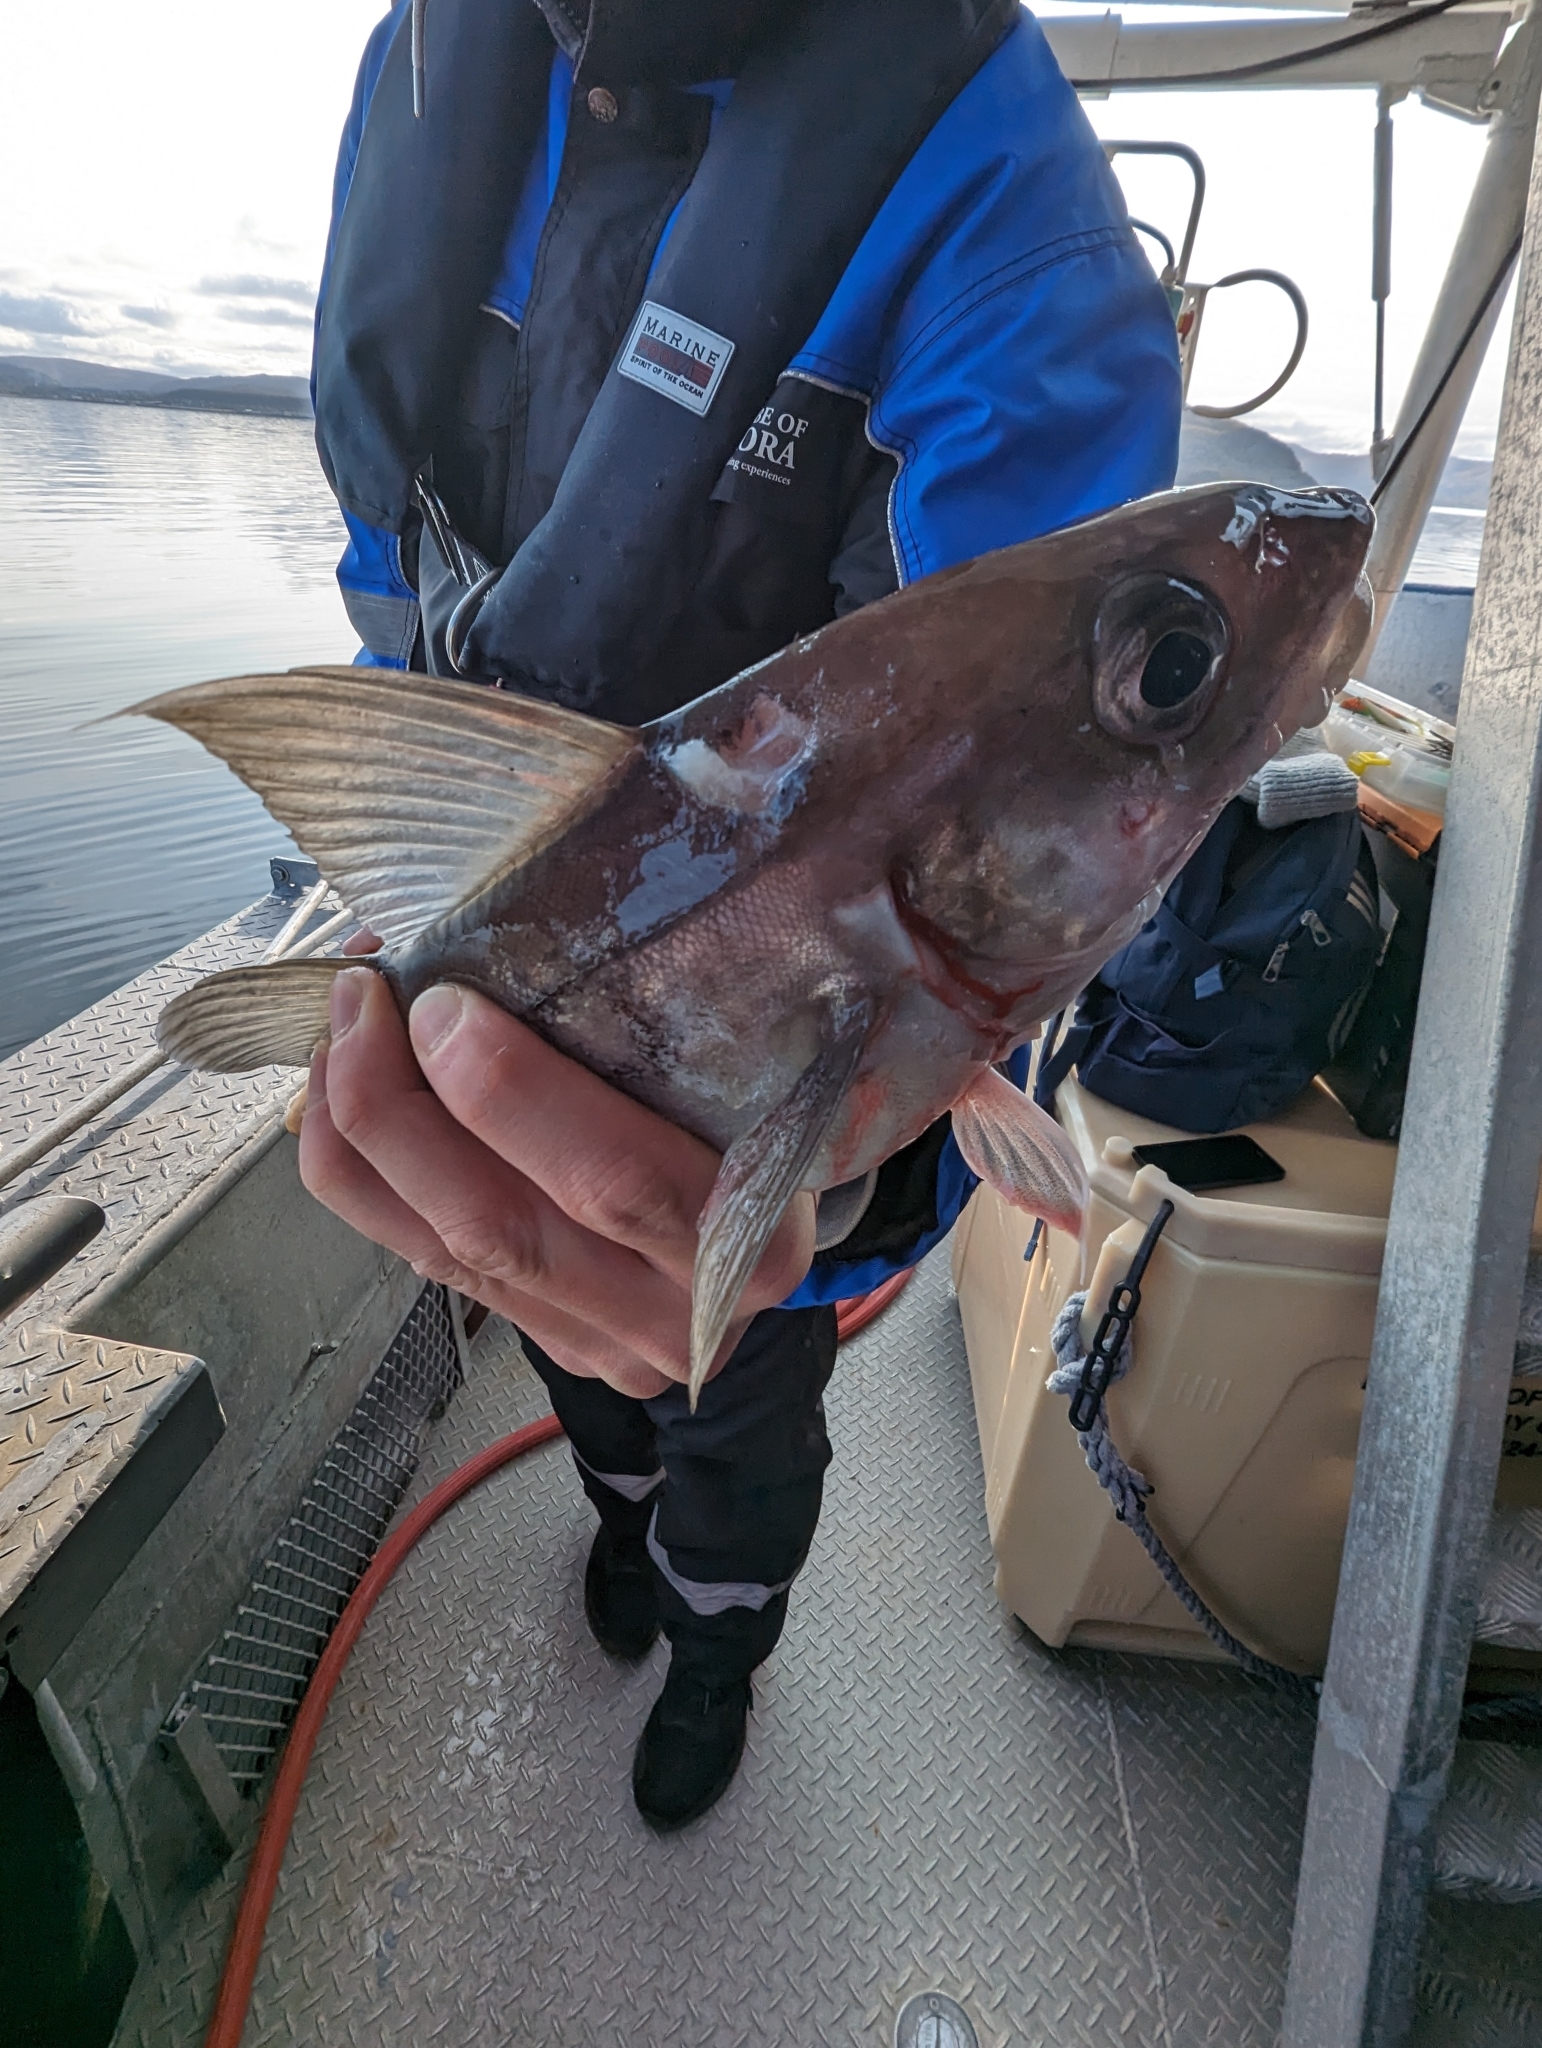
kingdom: Animalia
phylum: Chordata
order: Gadiformes
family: Gadidae
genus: Melanogrammus
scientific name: Melanogrammus aeglefinus
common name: Haddock
